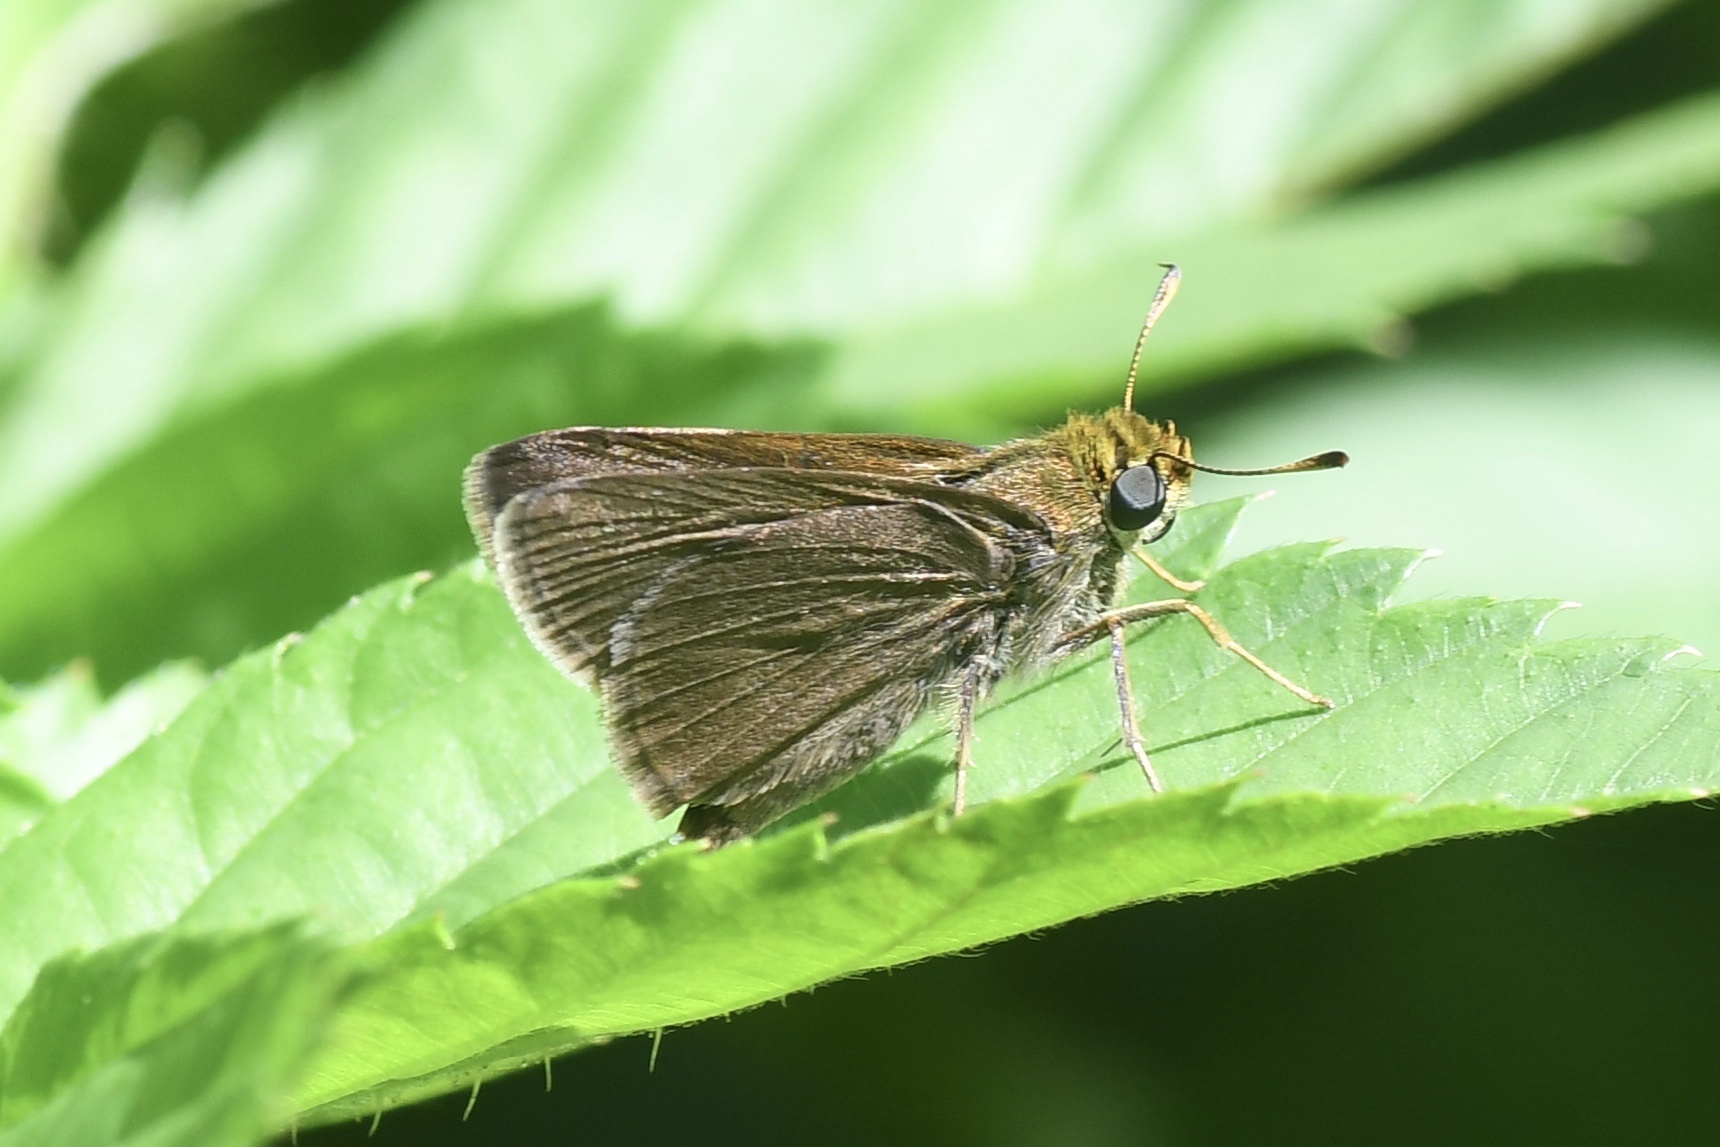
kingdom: Animalia
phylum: Arthropoda
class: Insecta
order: Lepidoptera
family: Hesperiidae
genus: Euphyes
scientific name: Euphyes vestris
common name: Dun skipper
